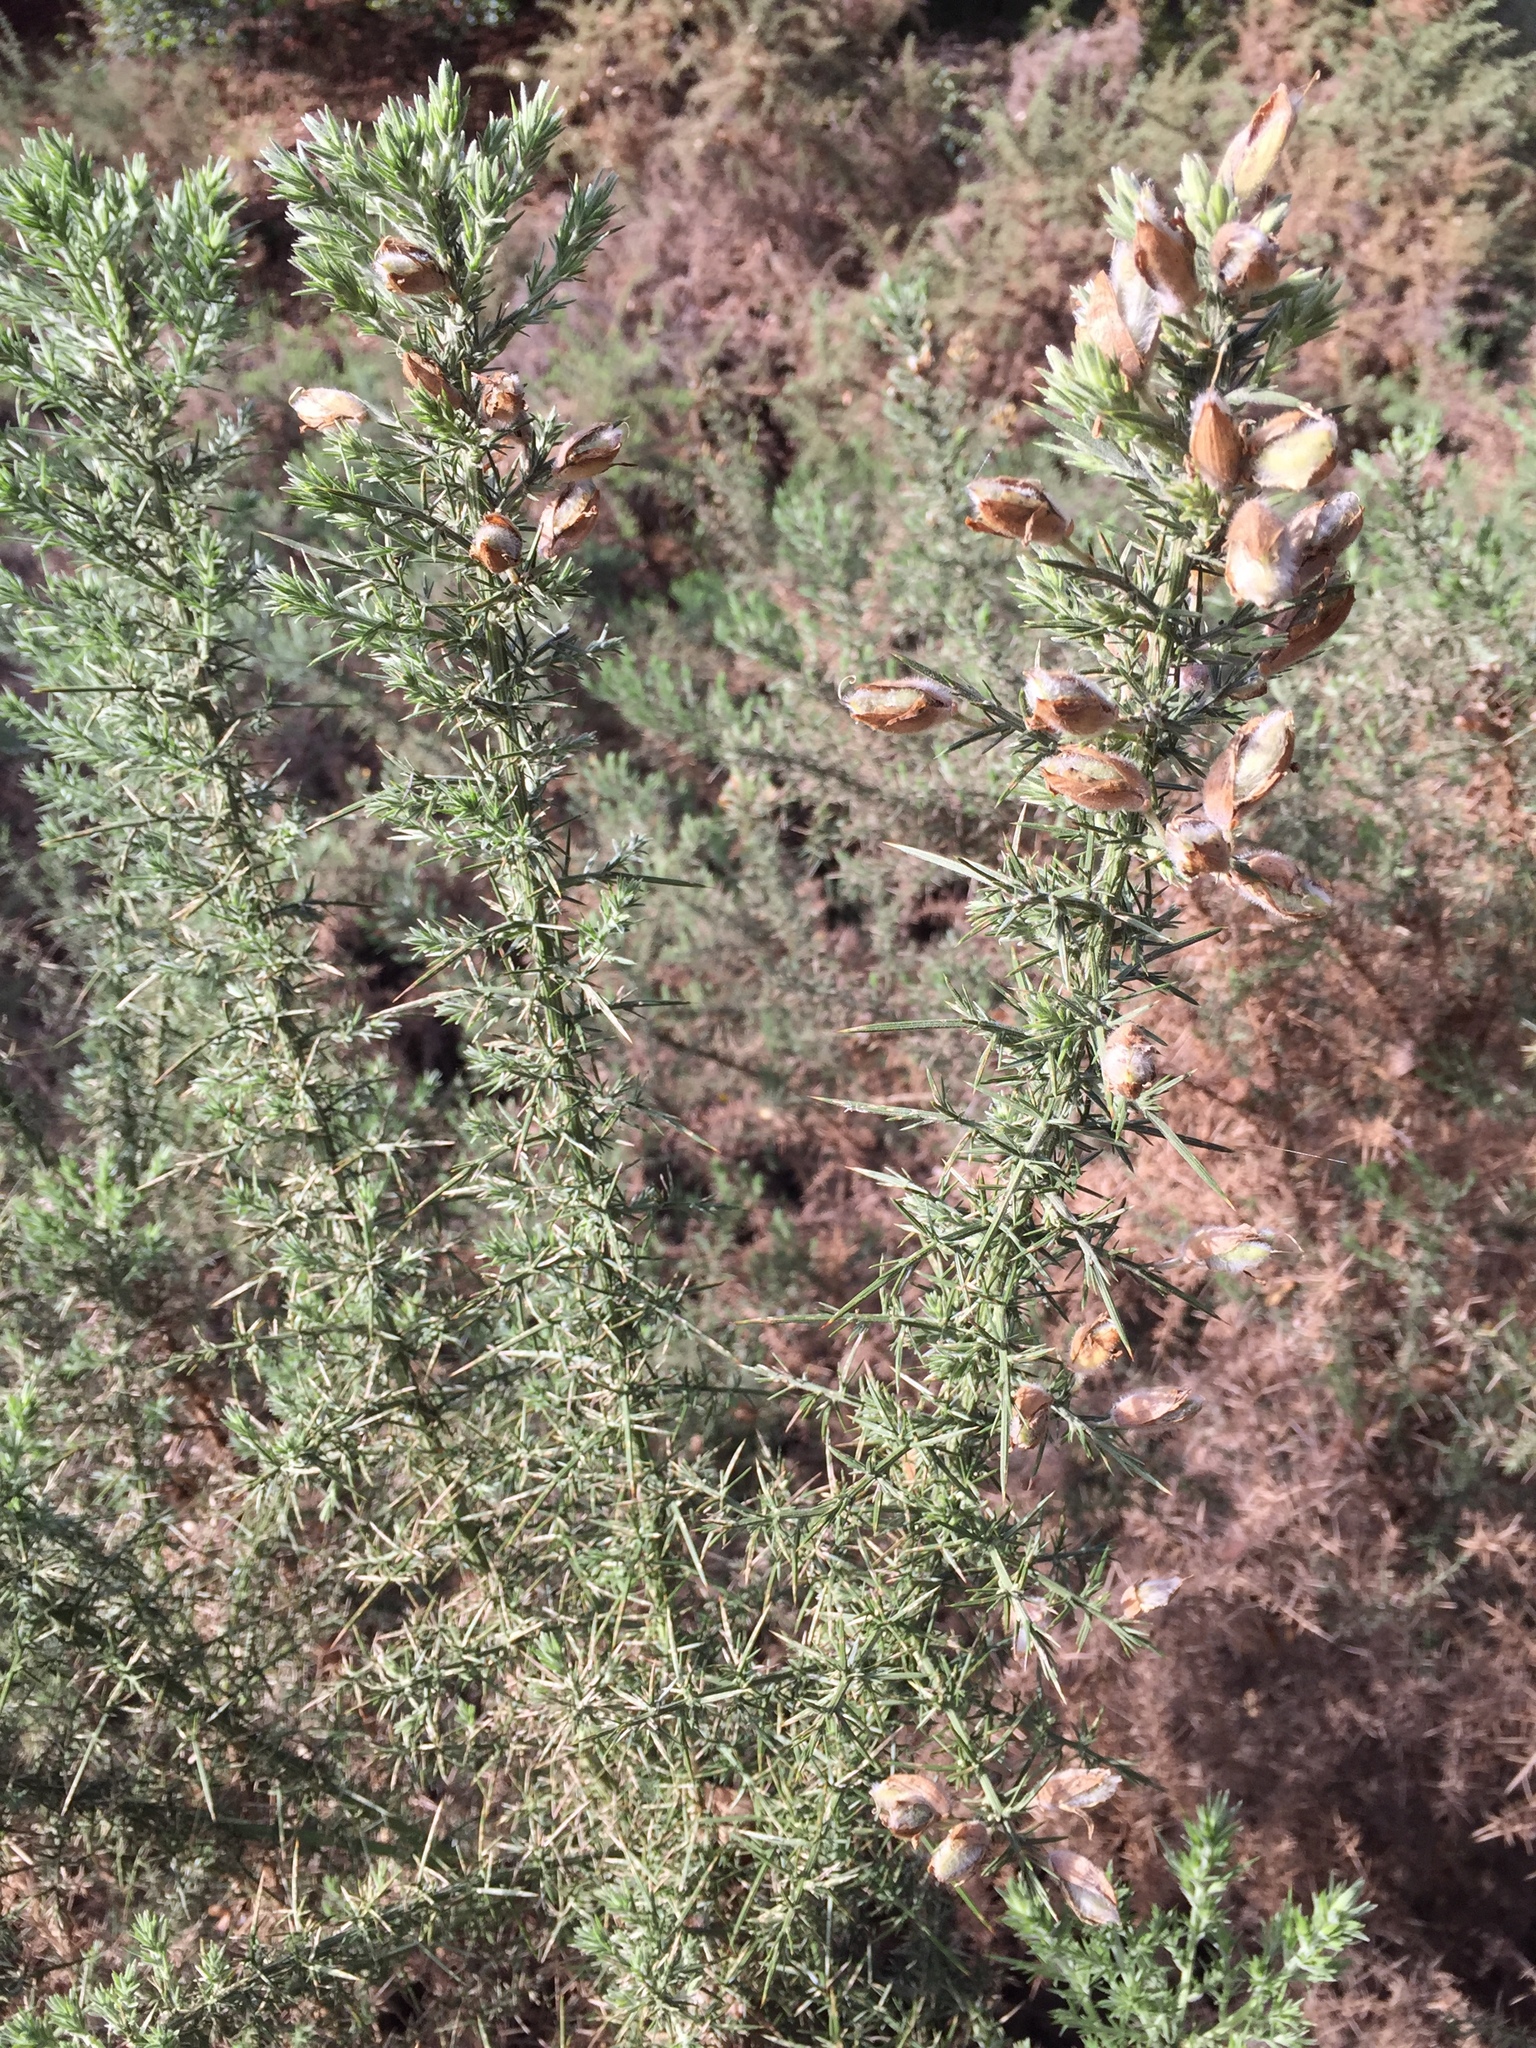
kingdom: Plantae
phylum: Tracheophyta
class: Magnoliopsida
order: Fabales
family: Fabaceae
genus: Ulex
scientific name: Ulex europaeus
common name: Common gorse
